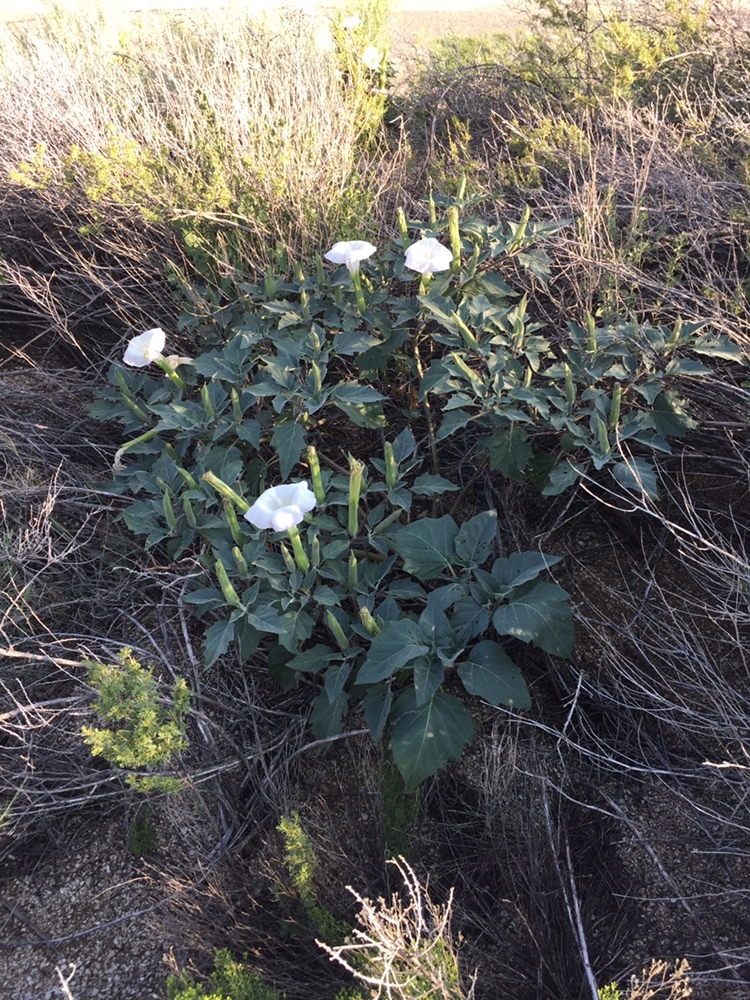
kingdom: Plantae
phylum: Tracheophyta
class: Magnoliopsida
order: Solanales
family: Solanaceae
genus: Datura
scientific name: Datura wrightii
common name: Sacred thorn-apple
